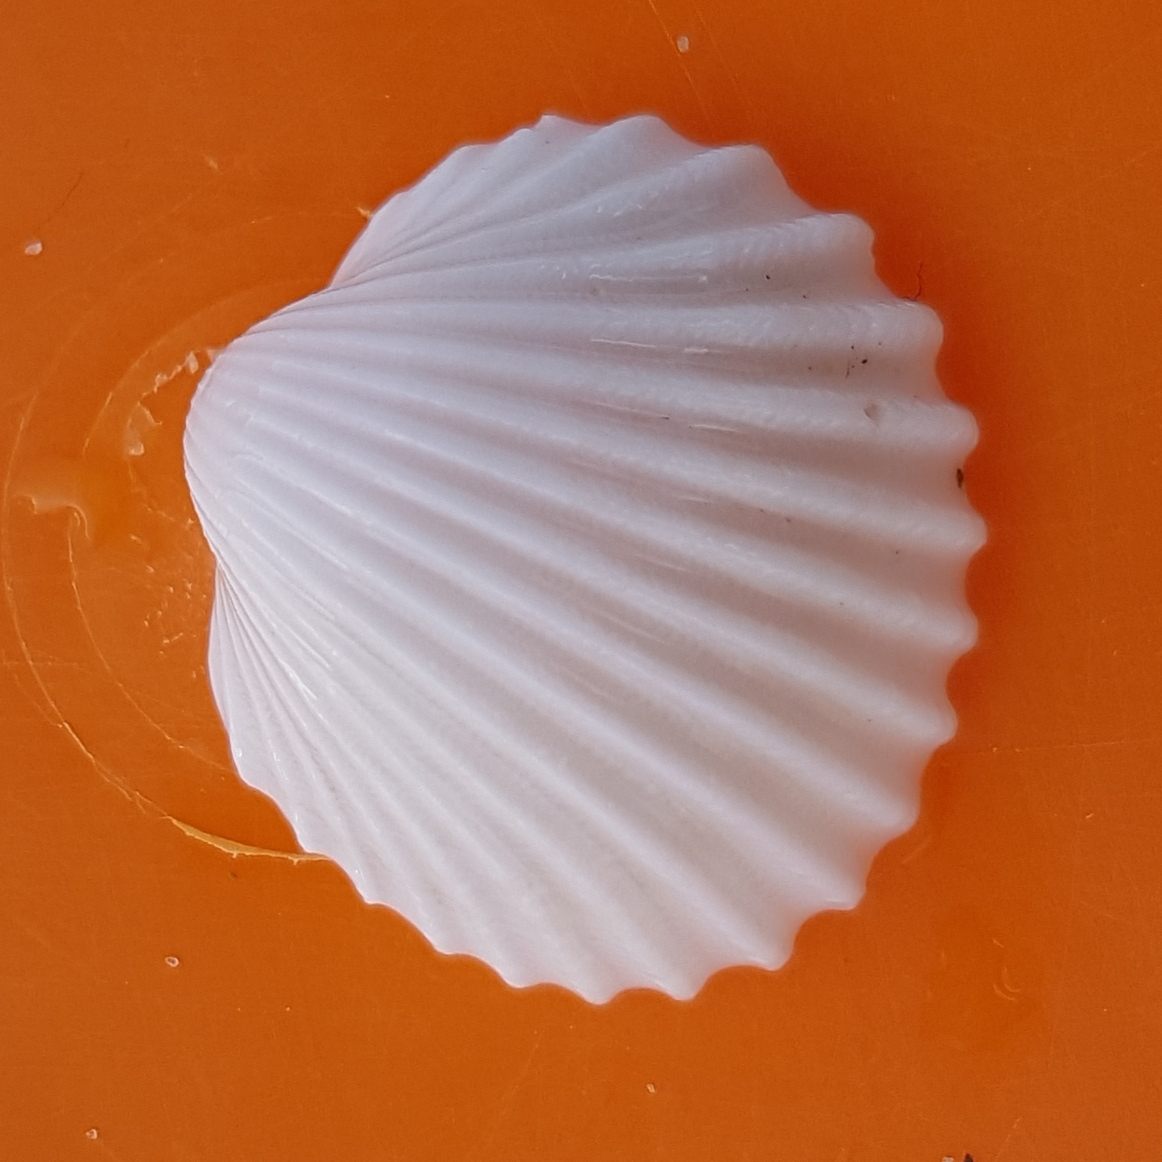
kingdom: Animalia
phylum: Mollusca
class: Bivalvia
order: Cardiida
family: Cardiidae
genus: Acanthocardia
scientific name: Acanthocardia tuberculata
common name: Rough cockle
